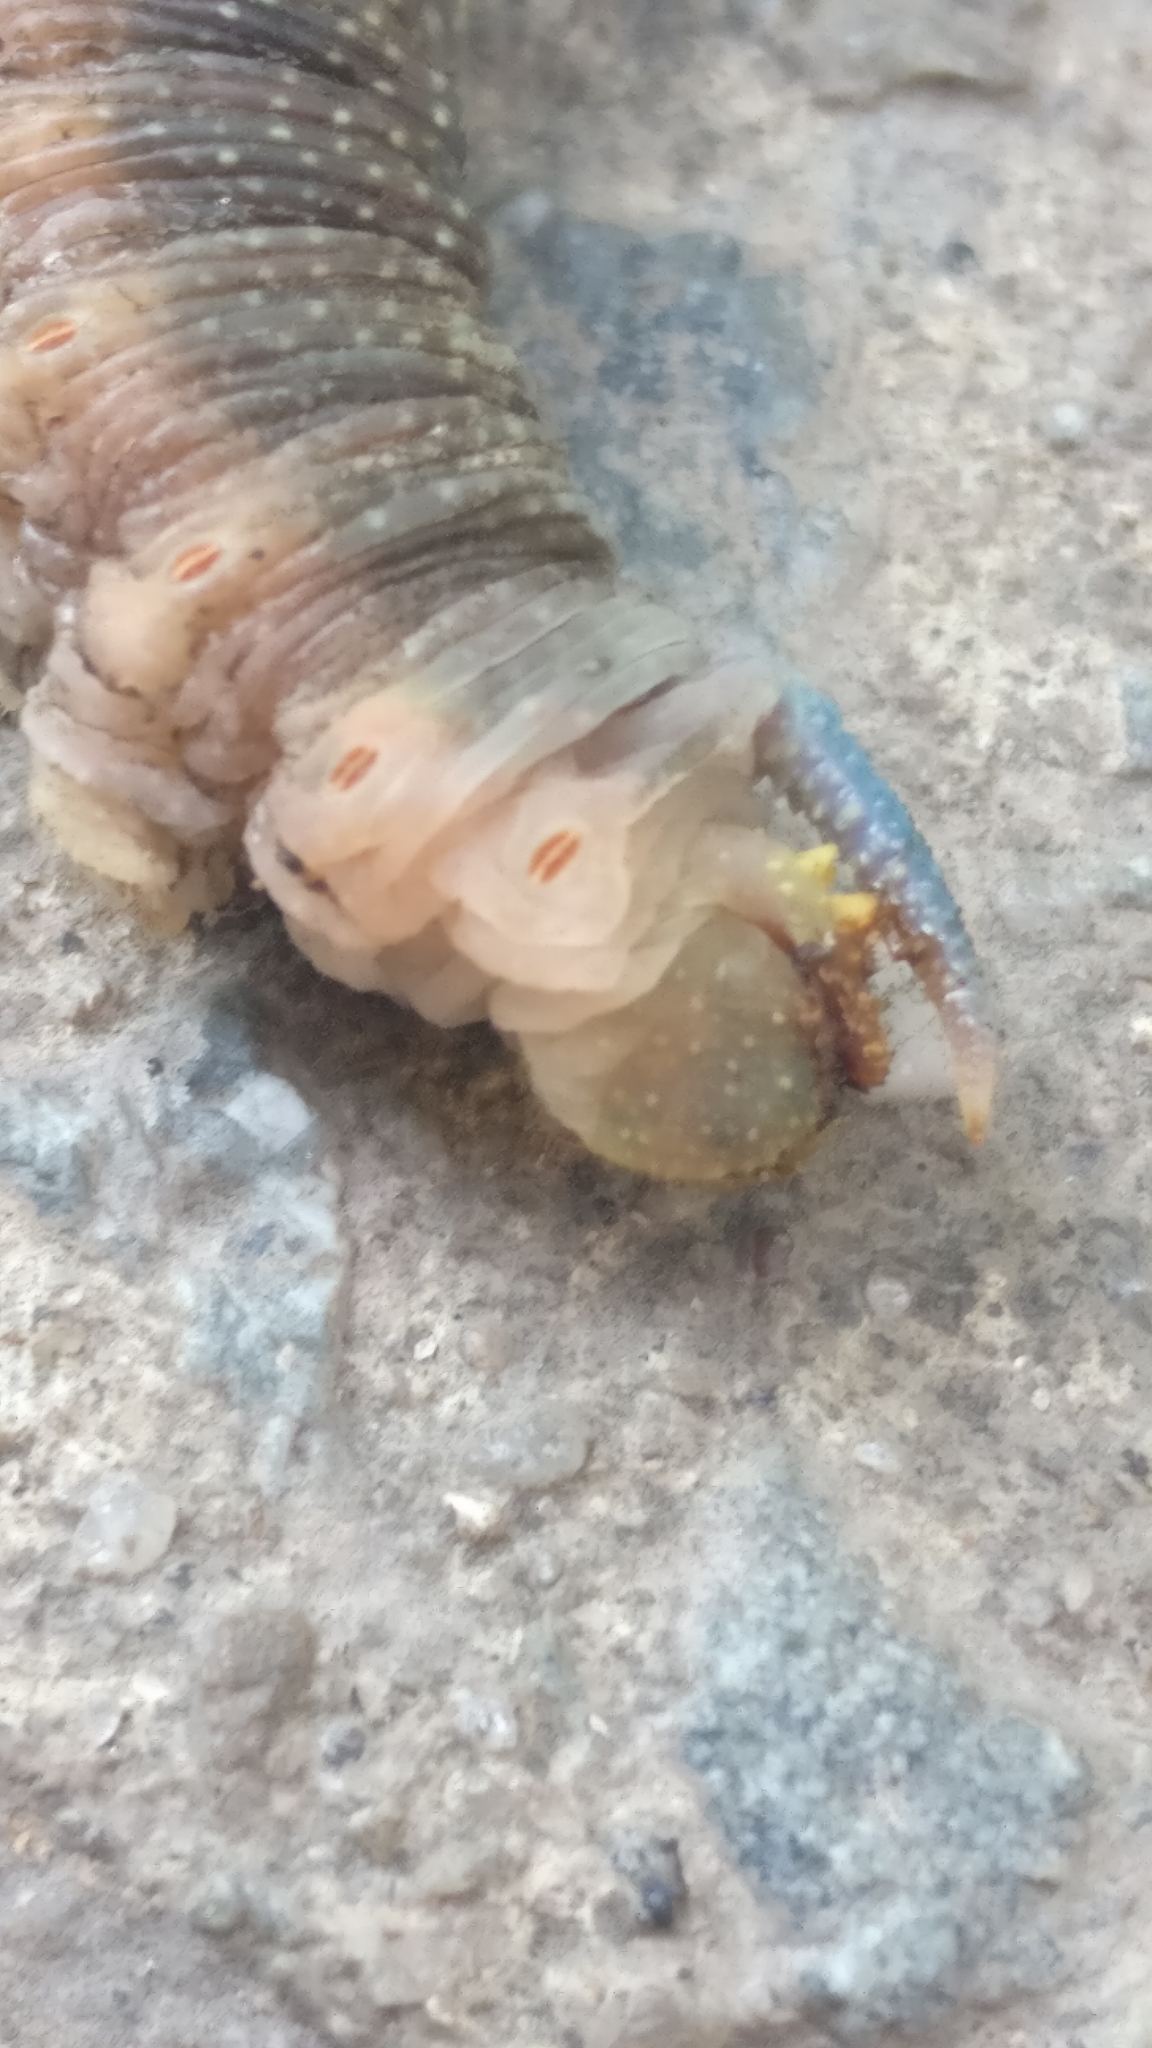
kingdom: Animalia
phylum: Arthropoda
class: Insecta
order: Lepidoptera
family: Sphingidae
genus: Mimas
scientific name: Mimas tiliae
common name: Lime hawk-moth
